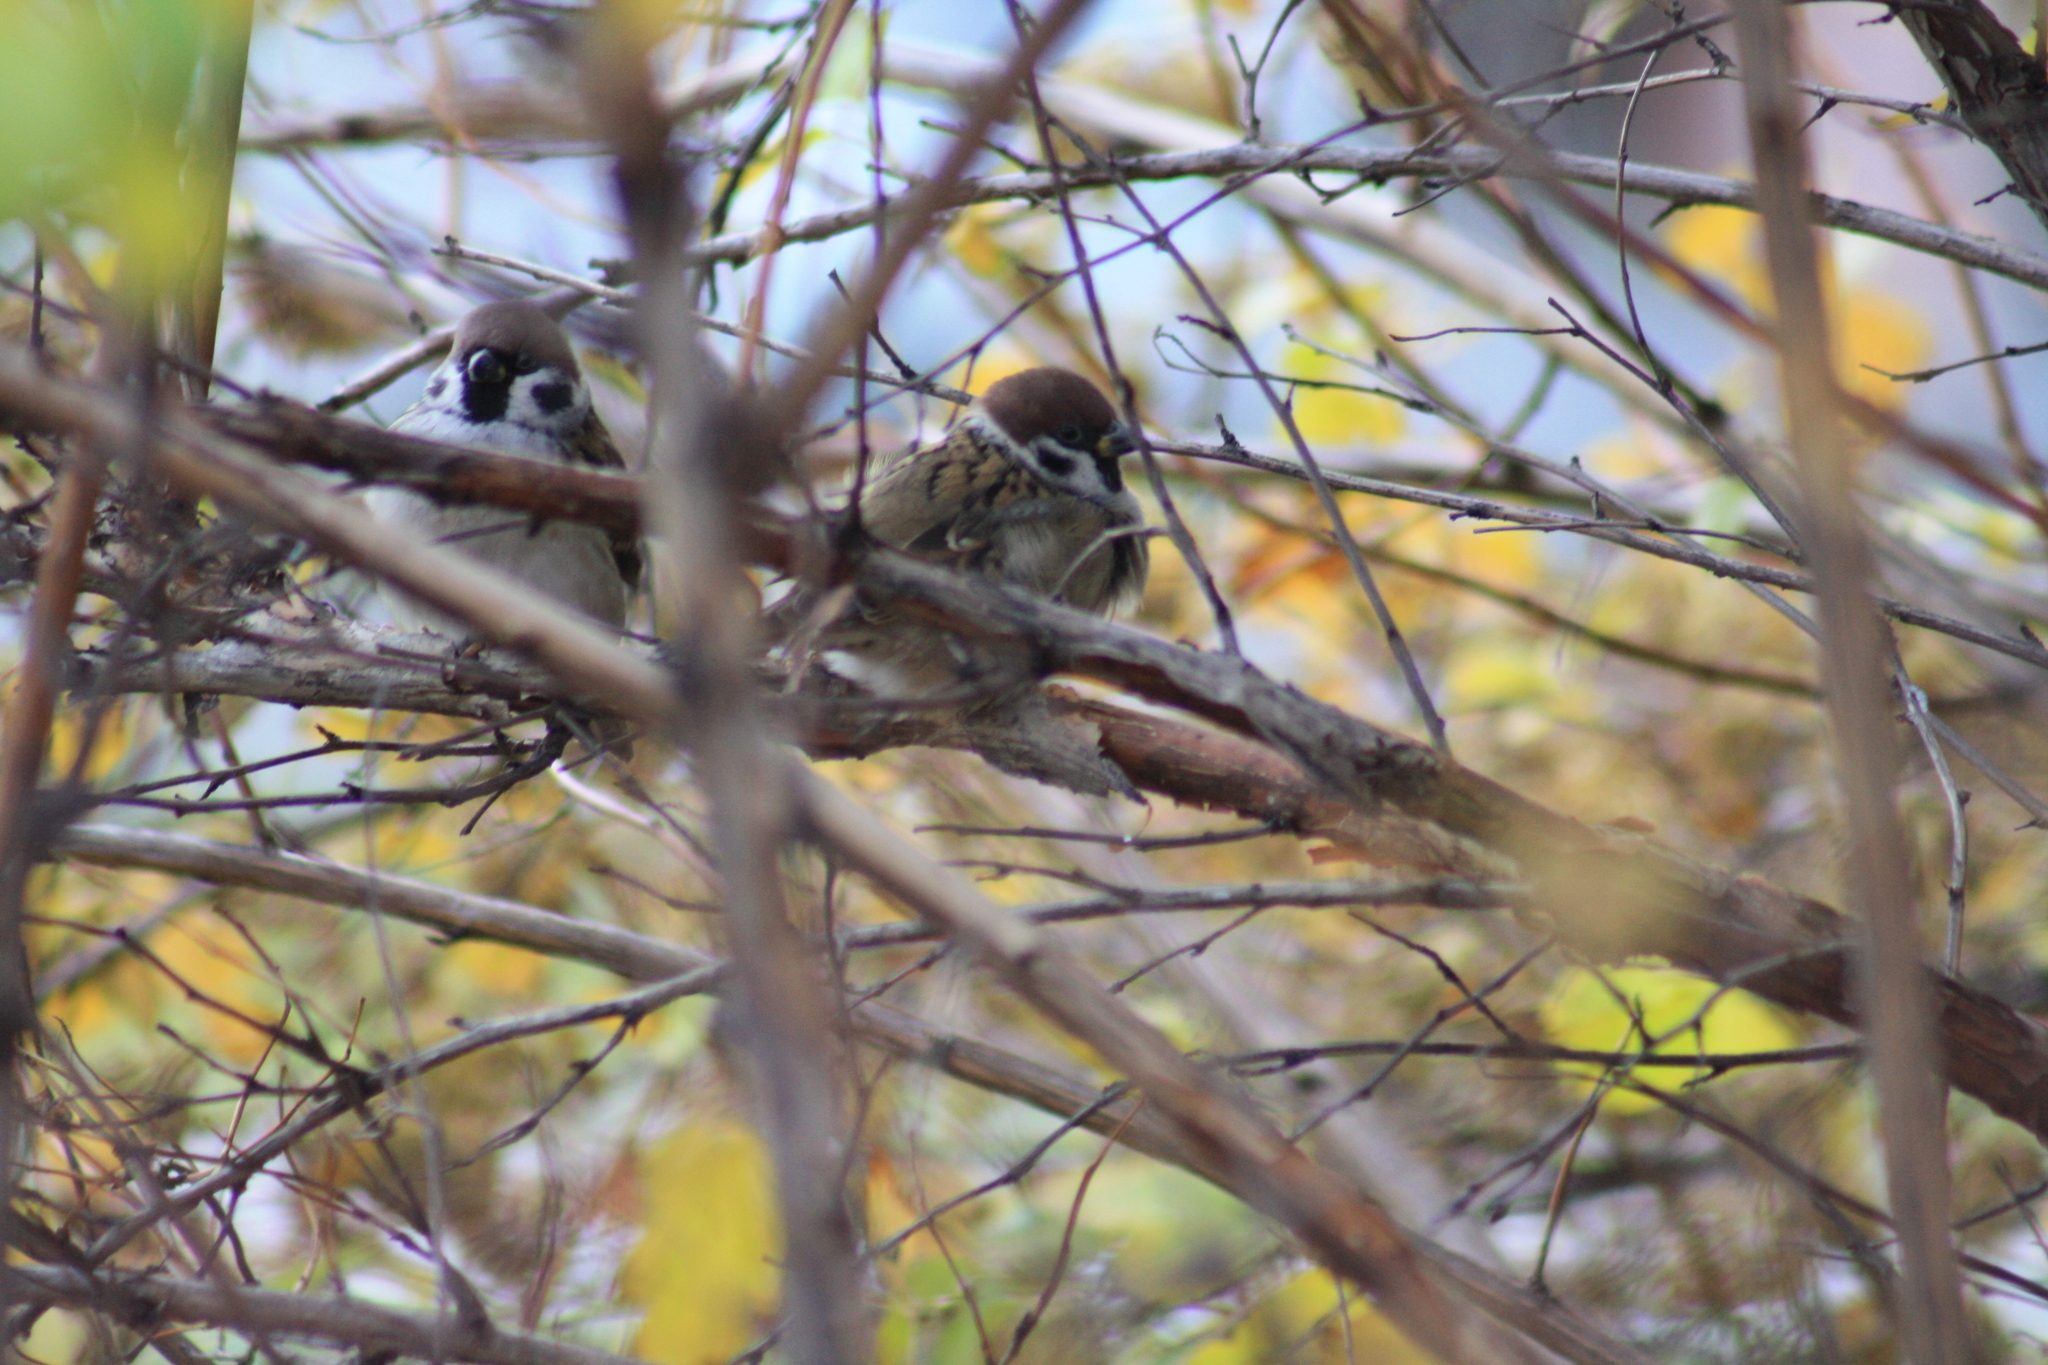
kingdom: Animalia
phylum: Chordata
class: Aves
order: Passeriformes
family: Passeridae
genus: Passer
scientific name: Passer montanus
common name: Eurasian tree sparrow
